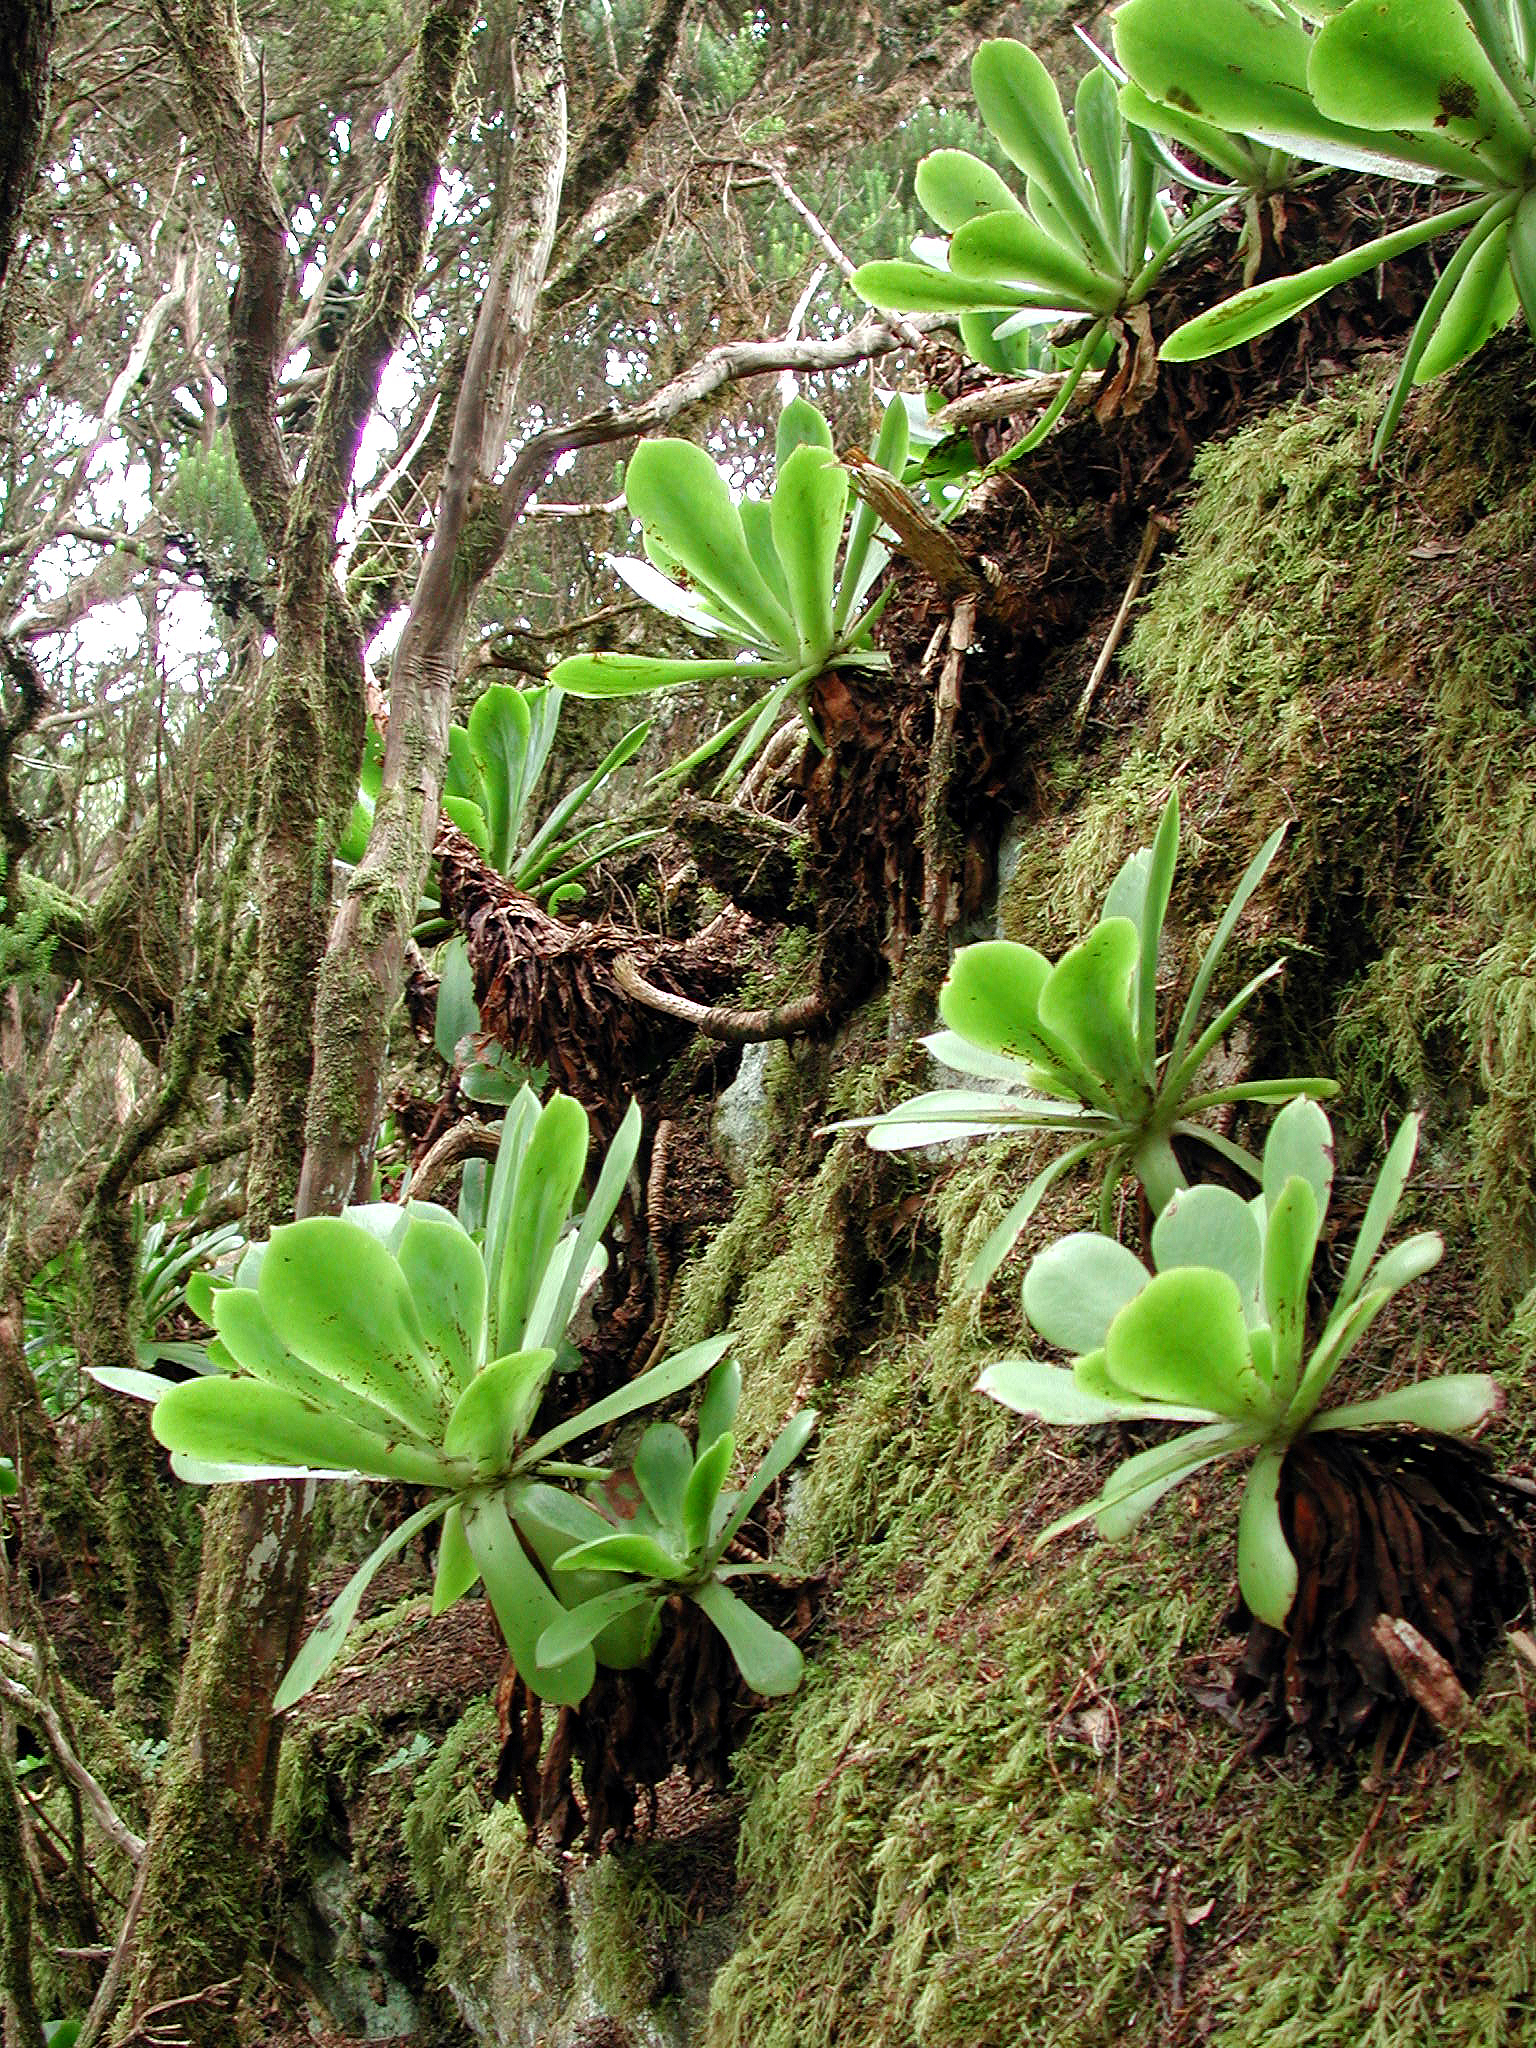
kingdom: Plantae
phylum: Tracheophyta
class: Magnoliopsida
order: Saxifragales
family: Crassulaceae
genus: Aeonium
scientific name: Aeonium cuneatum
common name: Aeonium
